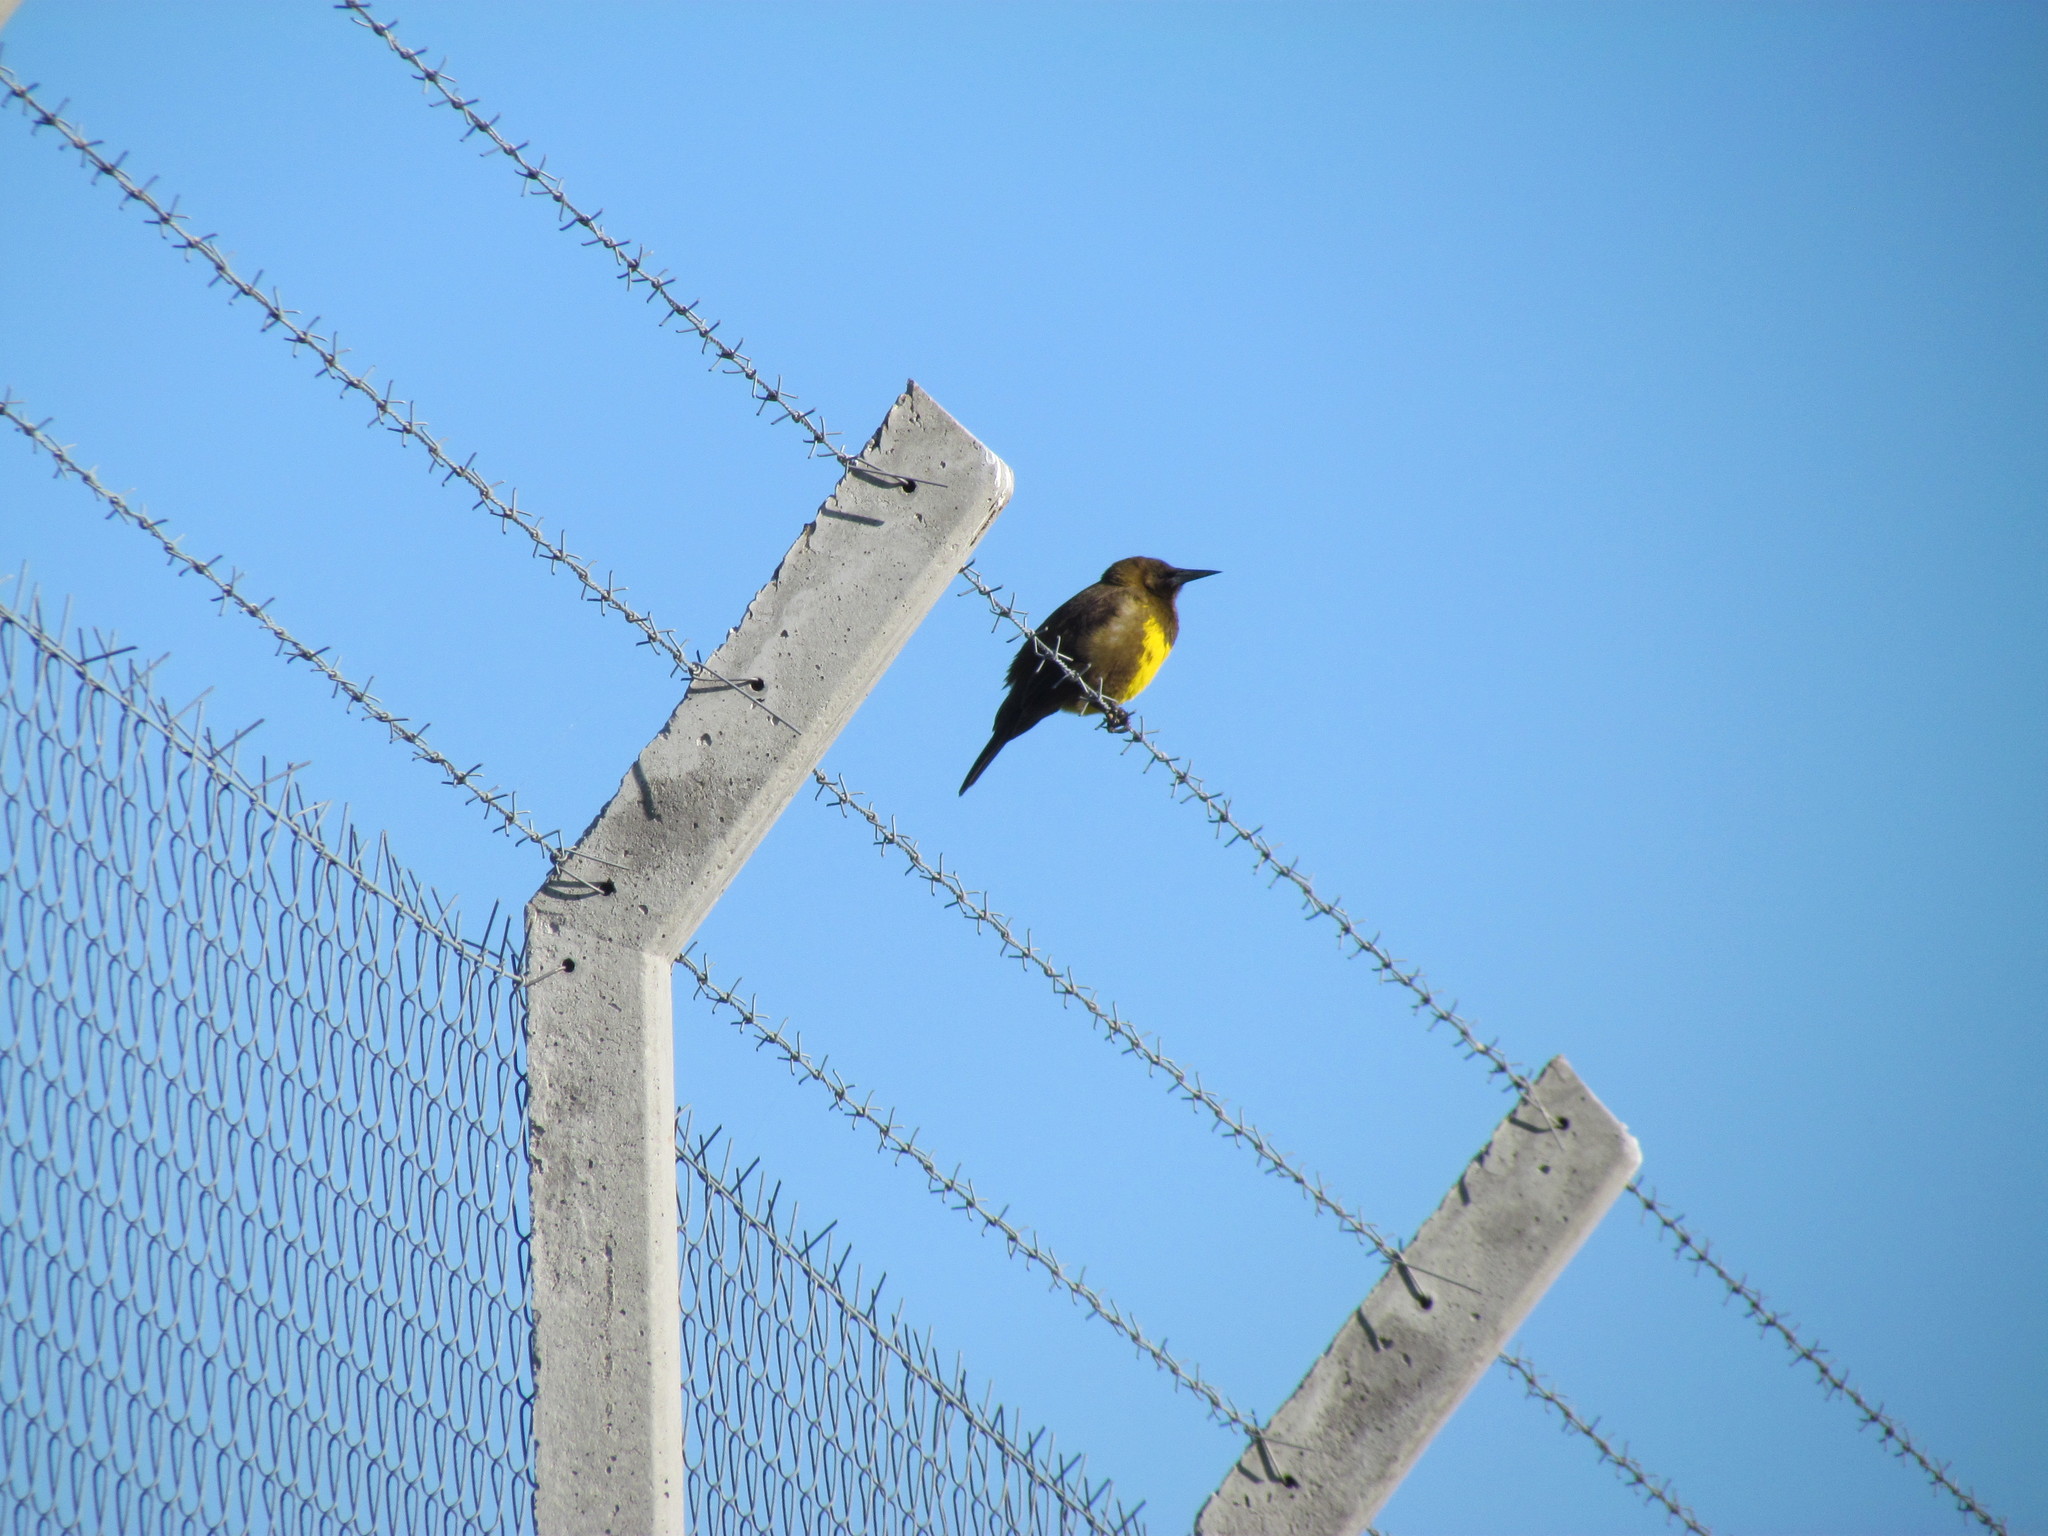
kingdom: Animalia
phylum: Chordata
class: Aves
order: Passeriformes
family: Icteridae
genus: Pseudoleistes
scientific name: Pseudoleistes virescens
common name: Brown-and-yellow marshbird
